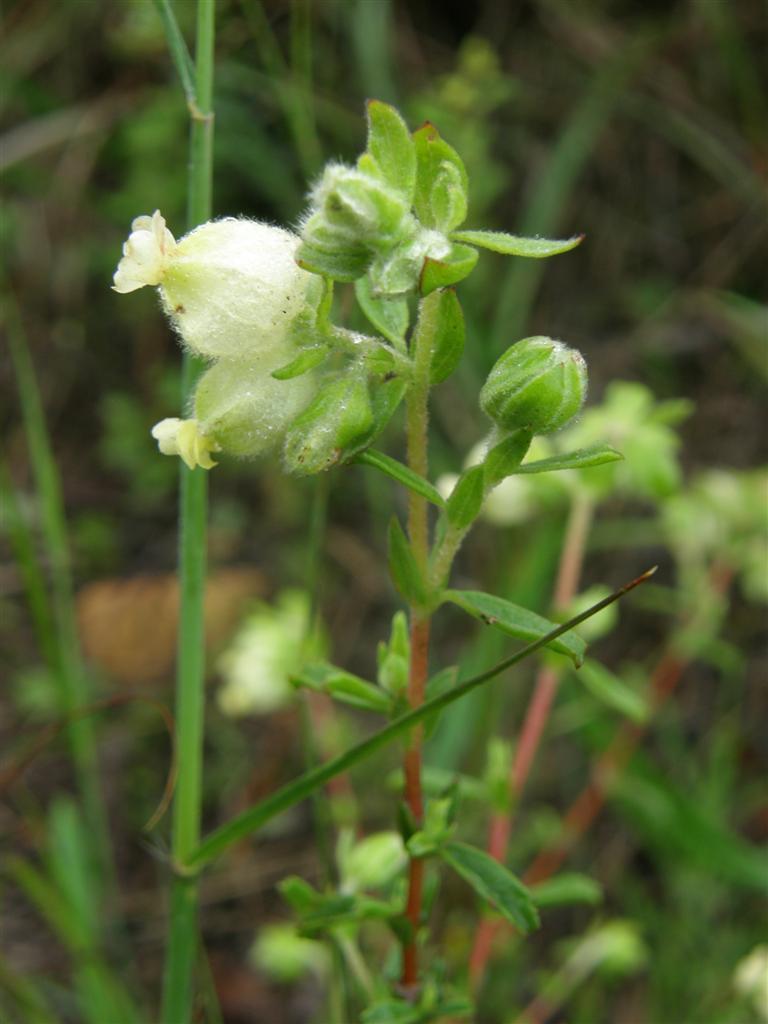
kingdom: Plantae
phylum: Tracheophyta
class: Magnoliopsida
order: Malvales
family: Malvaceae
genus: Hermannia
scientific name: Hermannia hyssopifolia
